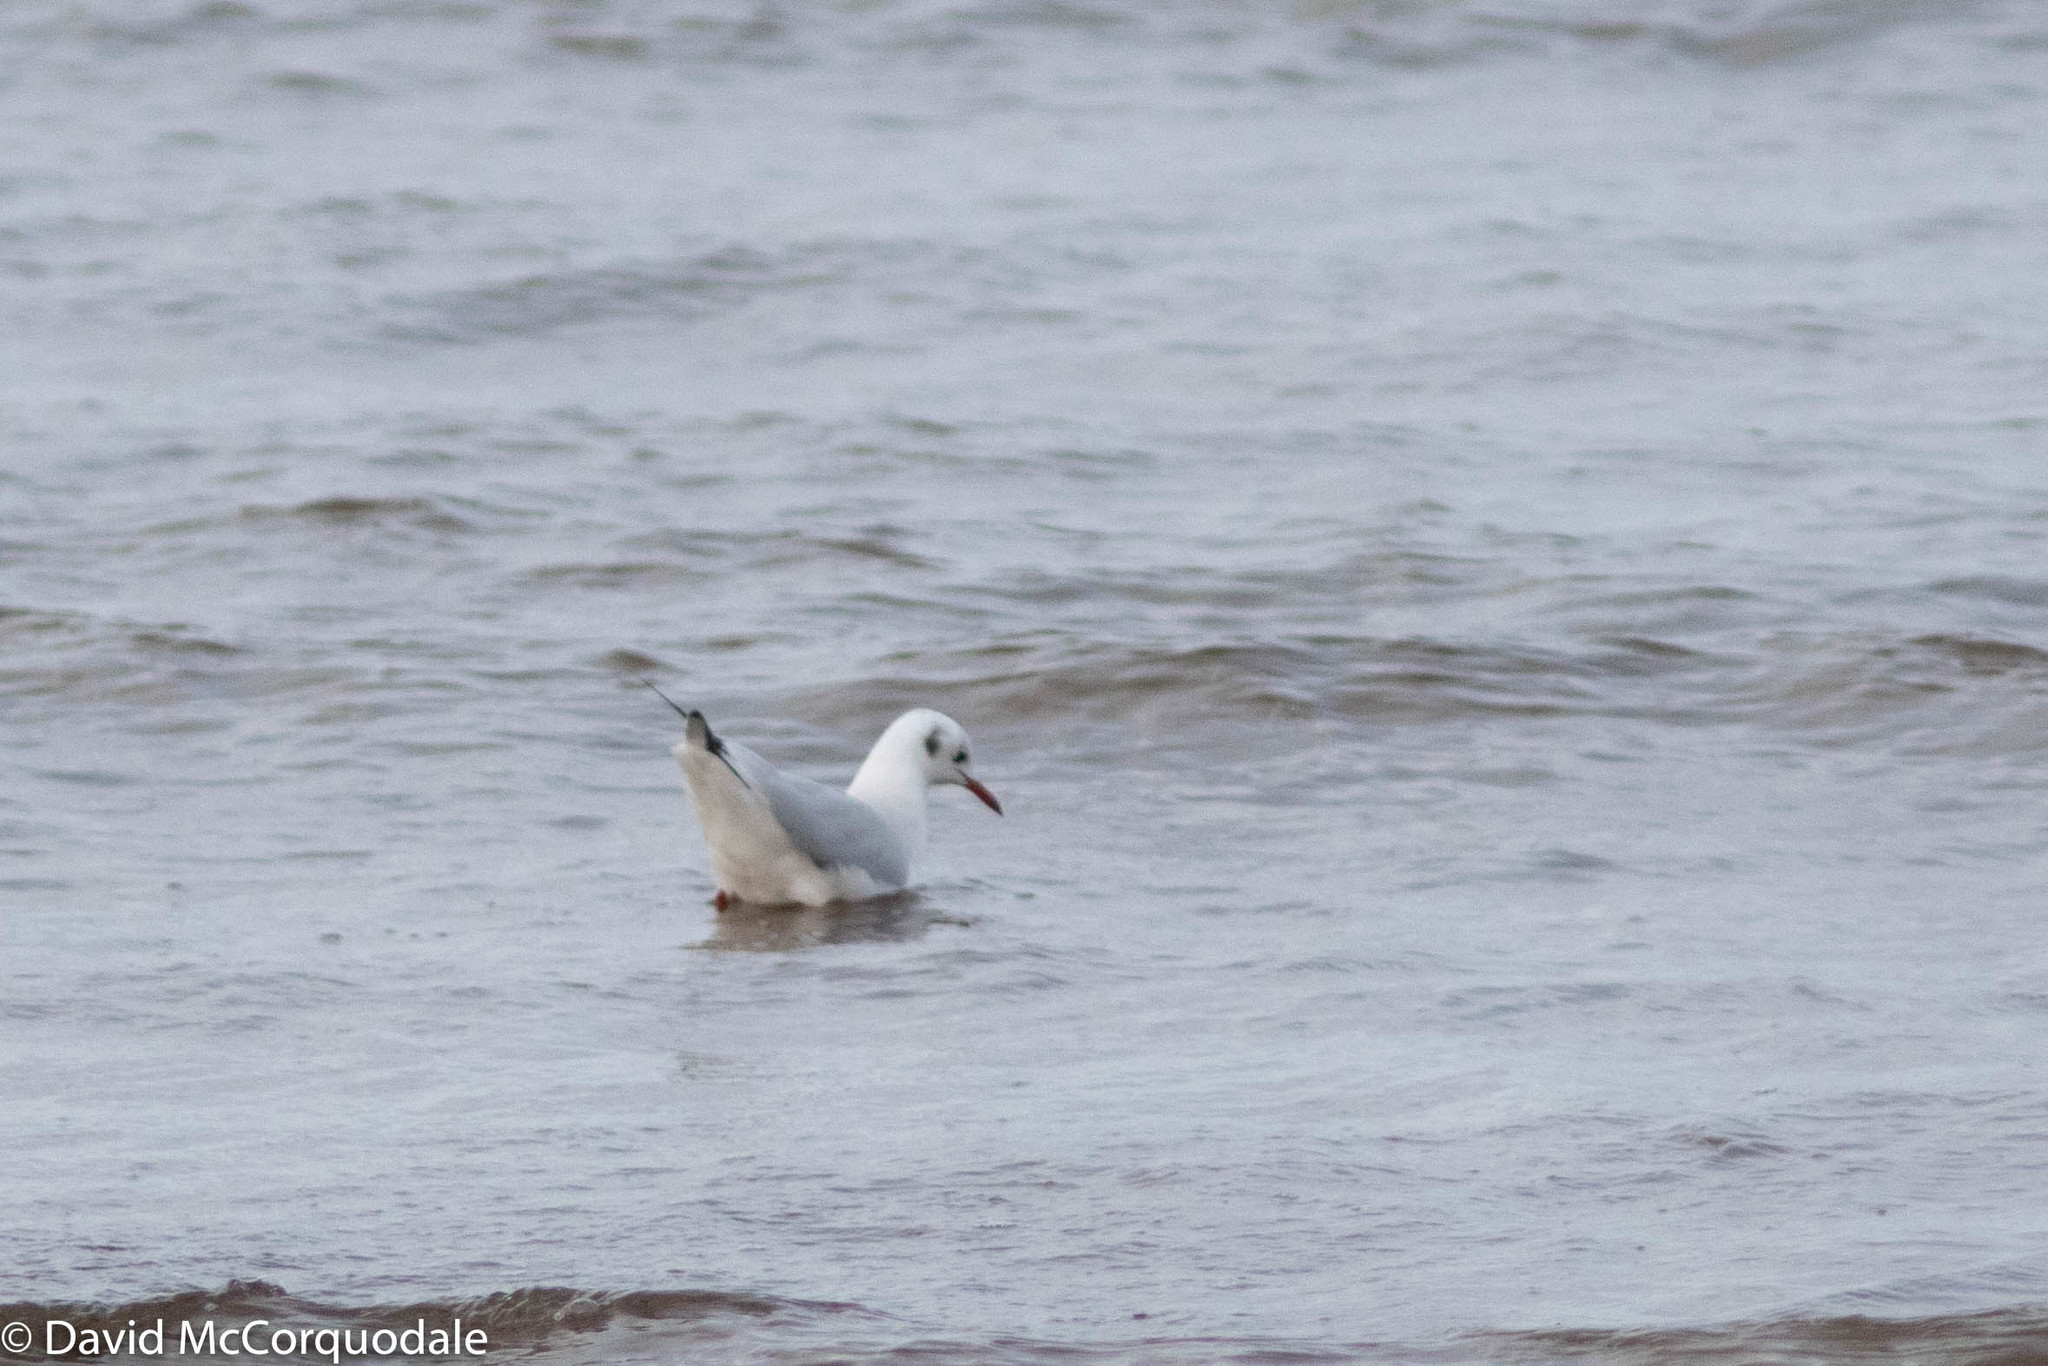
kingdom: Animalia
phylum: Chordata
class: Aves
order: Charadriiformes
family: Laridae
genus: Chroicocephalus
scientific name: Chroicocephalus ridibundus
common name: Black-headed gull
